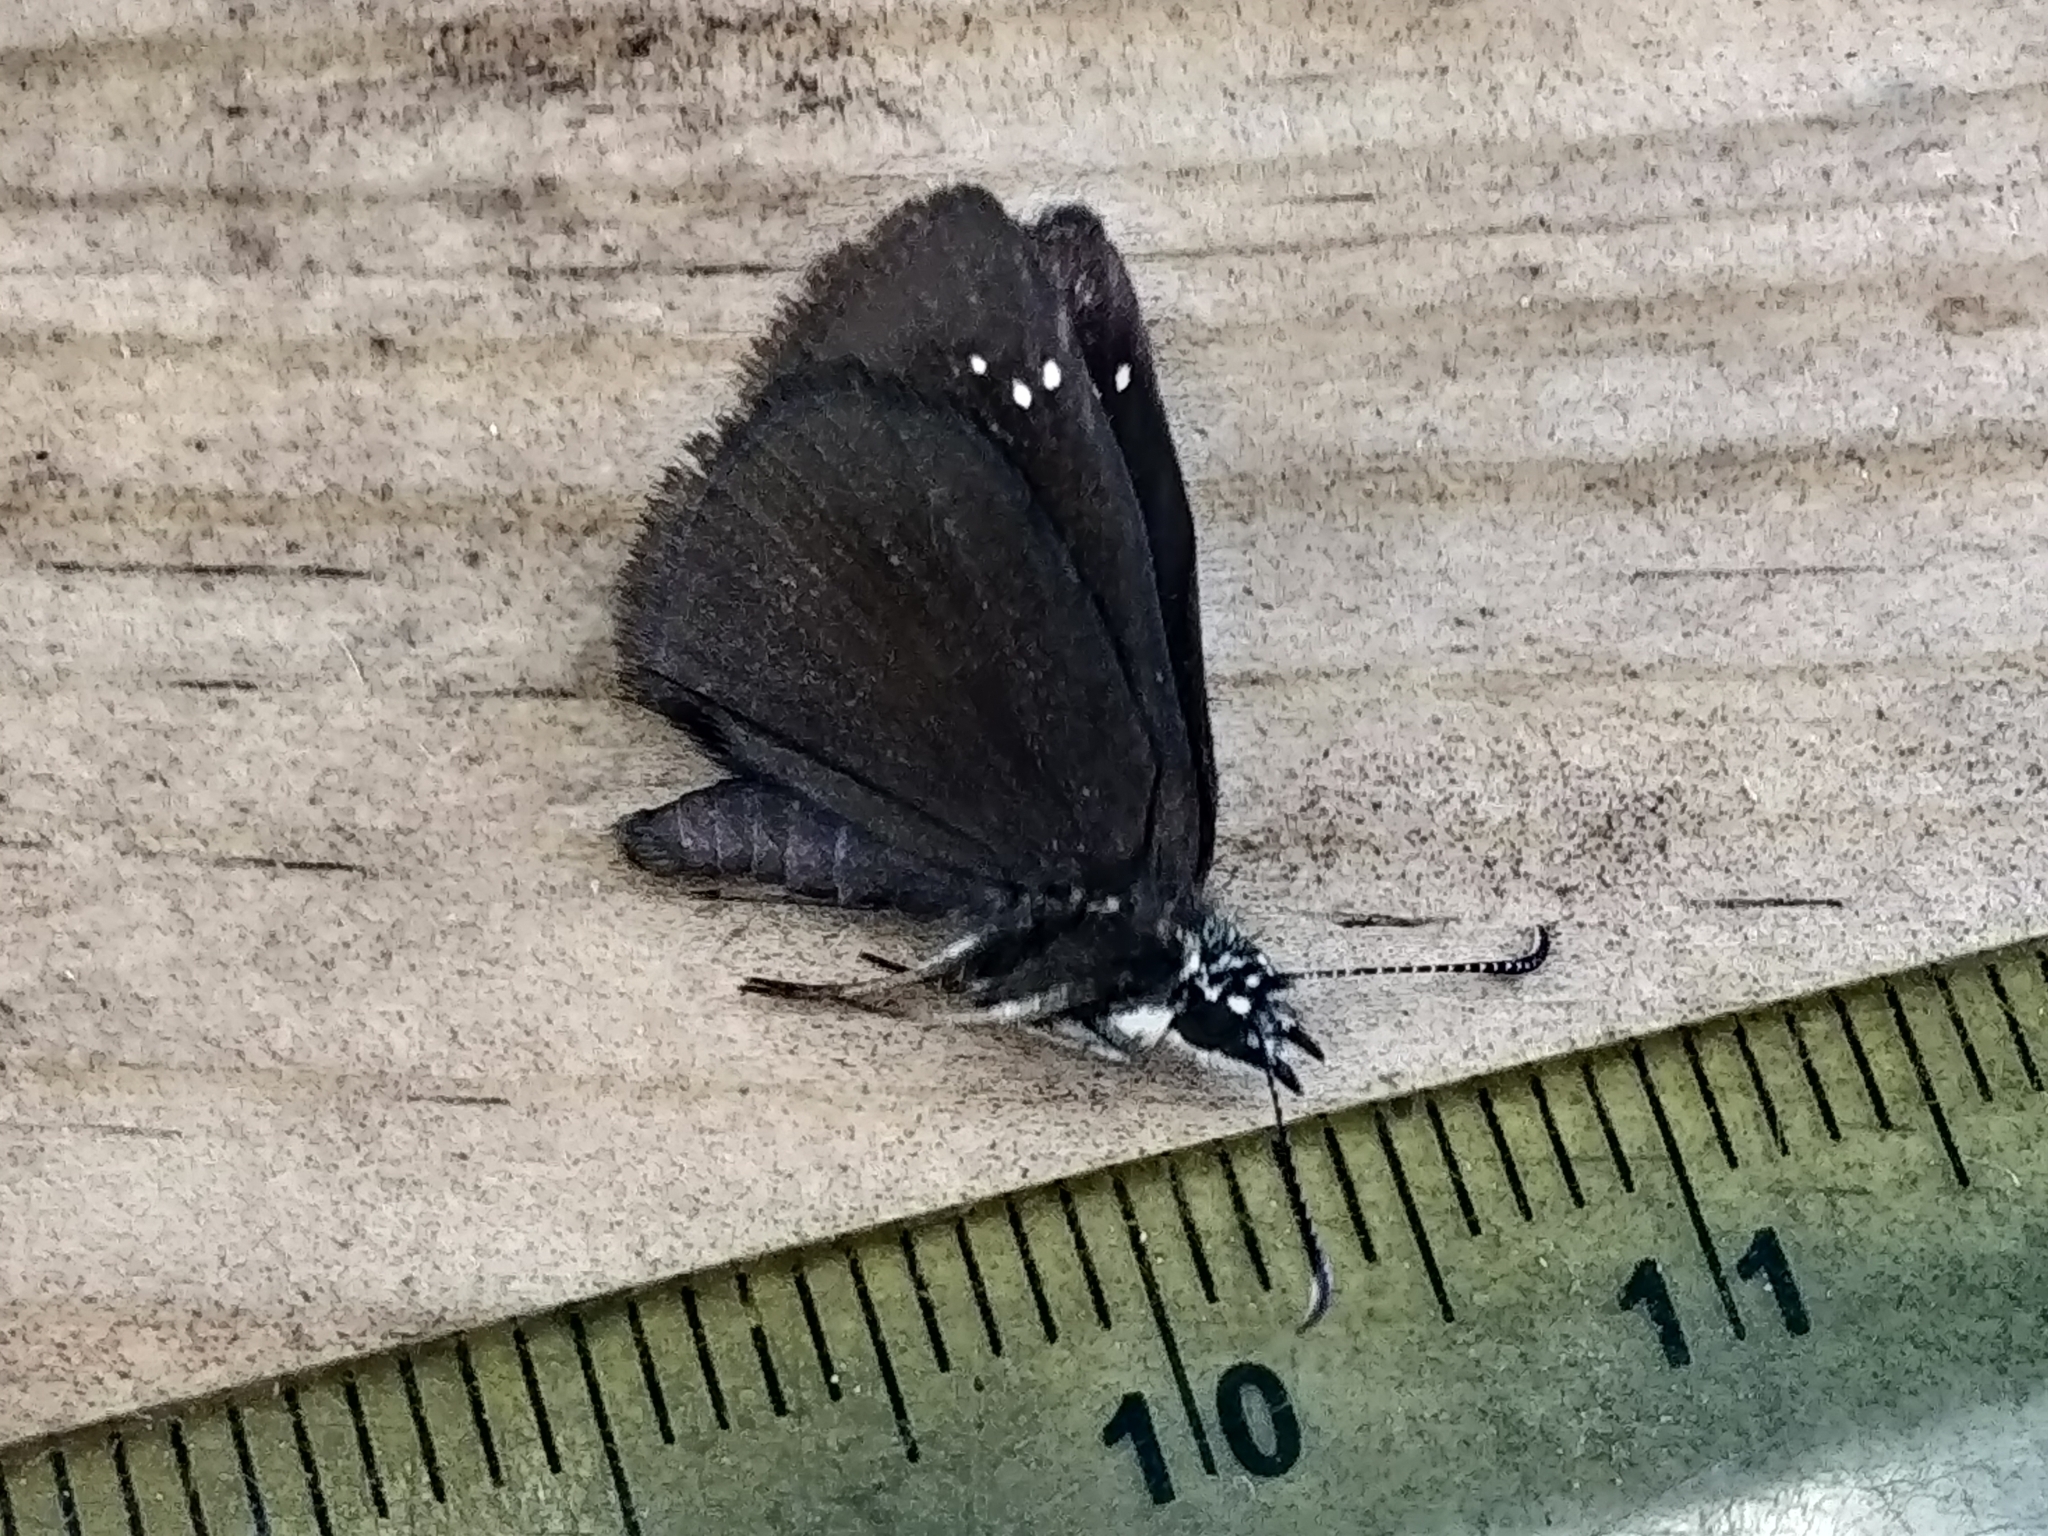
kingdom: Animalia
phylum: Arthropoda
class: Insecta
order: Lepidoptera
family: Hesperiidae
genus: Pholisora
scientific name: Pholisora catullus
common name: Common sootywing
